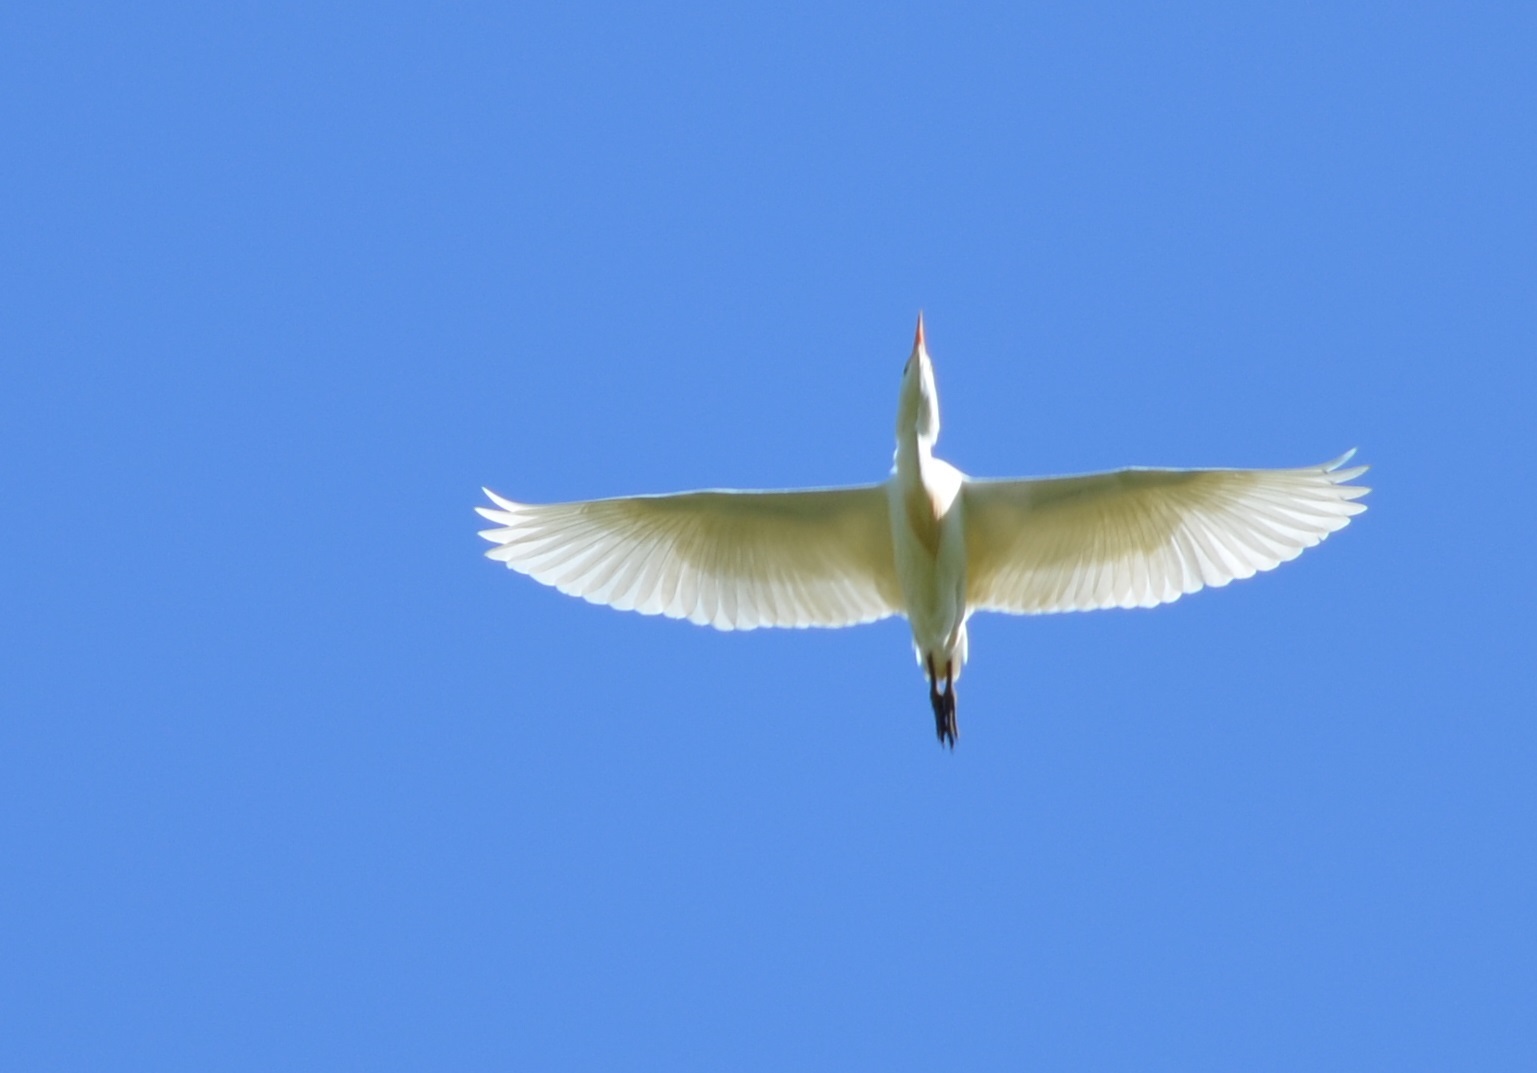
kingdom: Animalia
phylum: Chordata
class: Aves
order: Pelecaniformes
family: Ardeidae
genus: Bubulcus
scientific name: Bubulcus ibis
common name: Cattle egret
